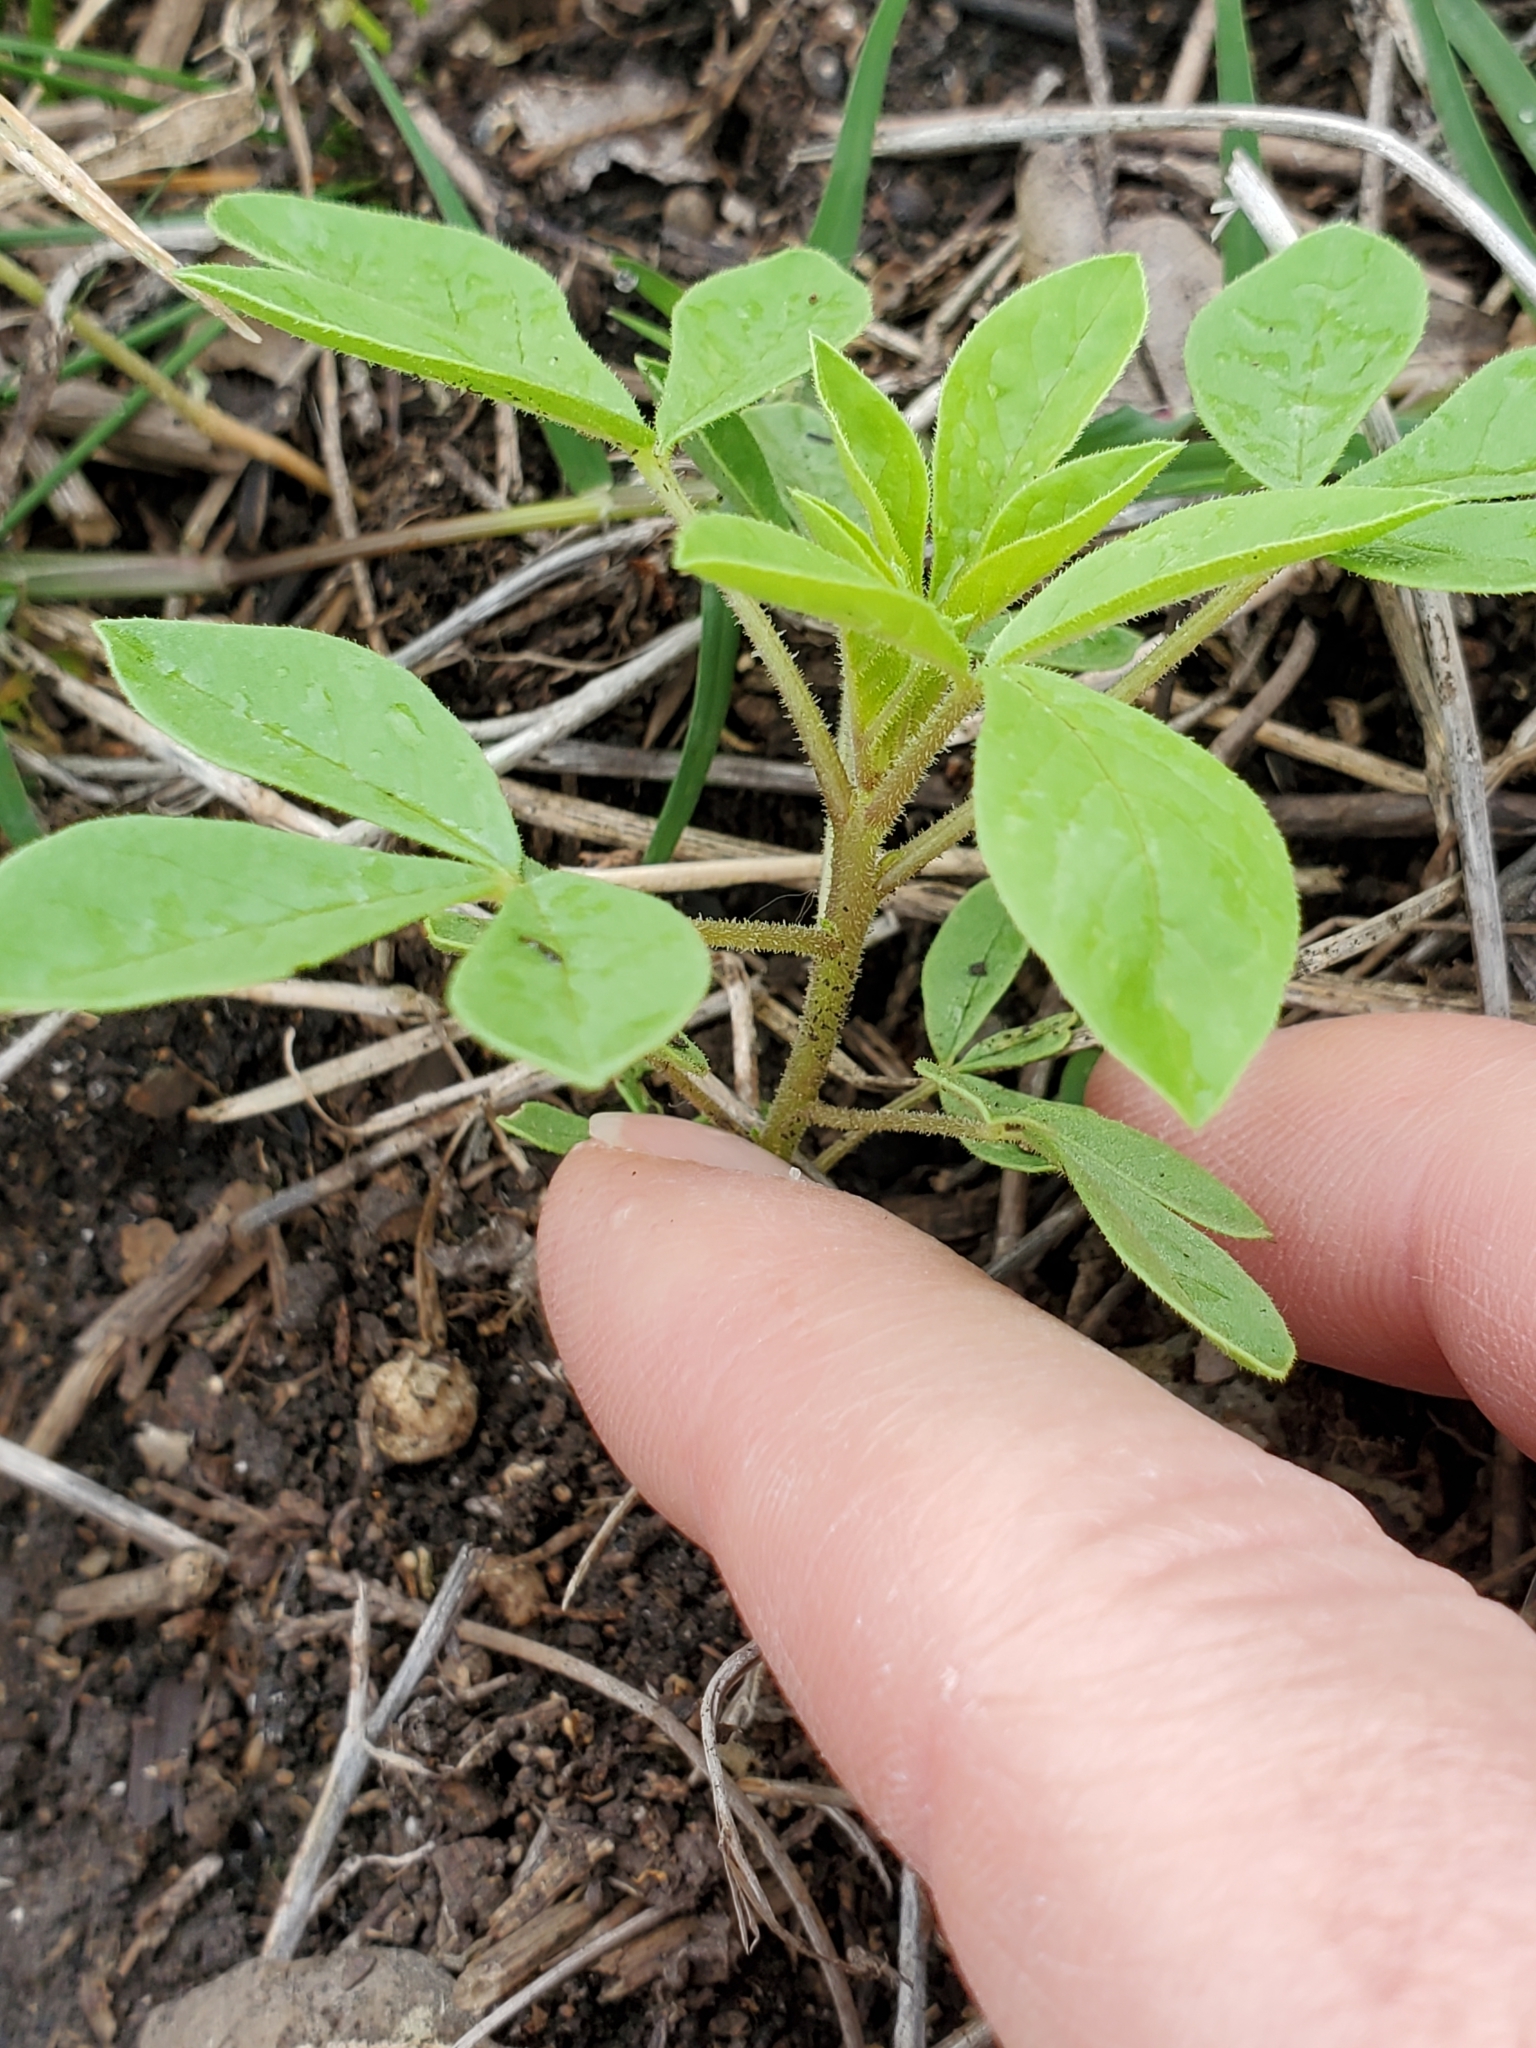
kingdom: Plantae
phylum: Tracheophyta
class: Magnoliopsida
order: Brassicales
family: Cleomaceae
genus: Polanisia
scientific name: Polanisia dodecandra
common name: Clammyweed
